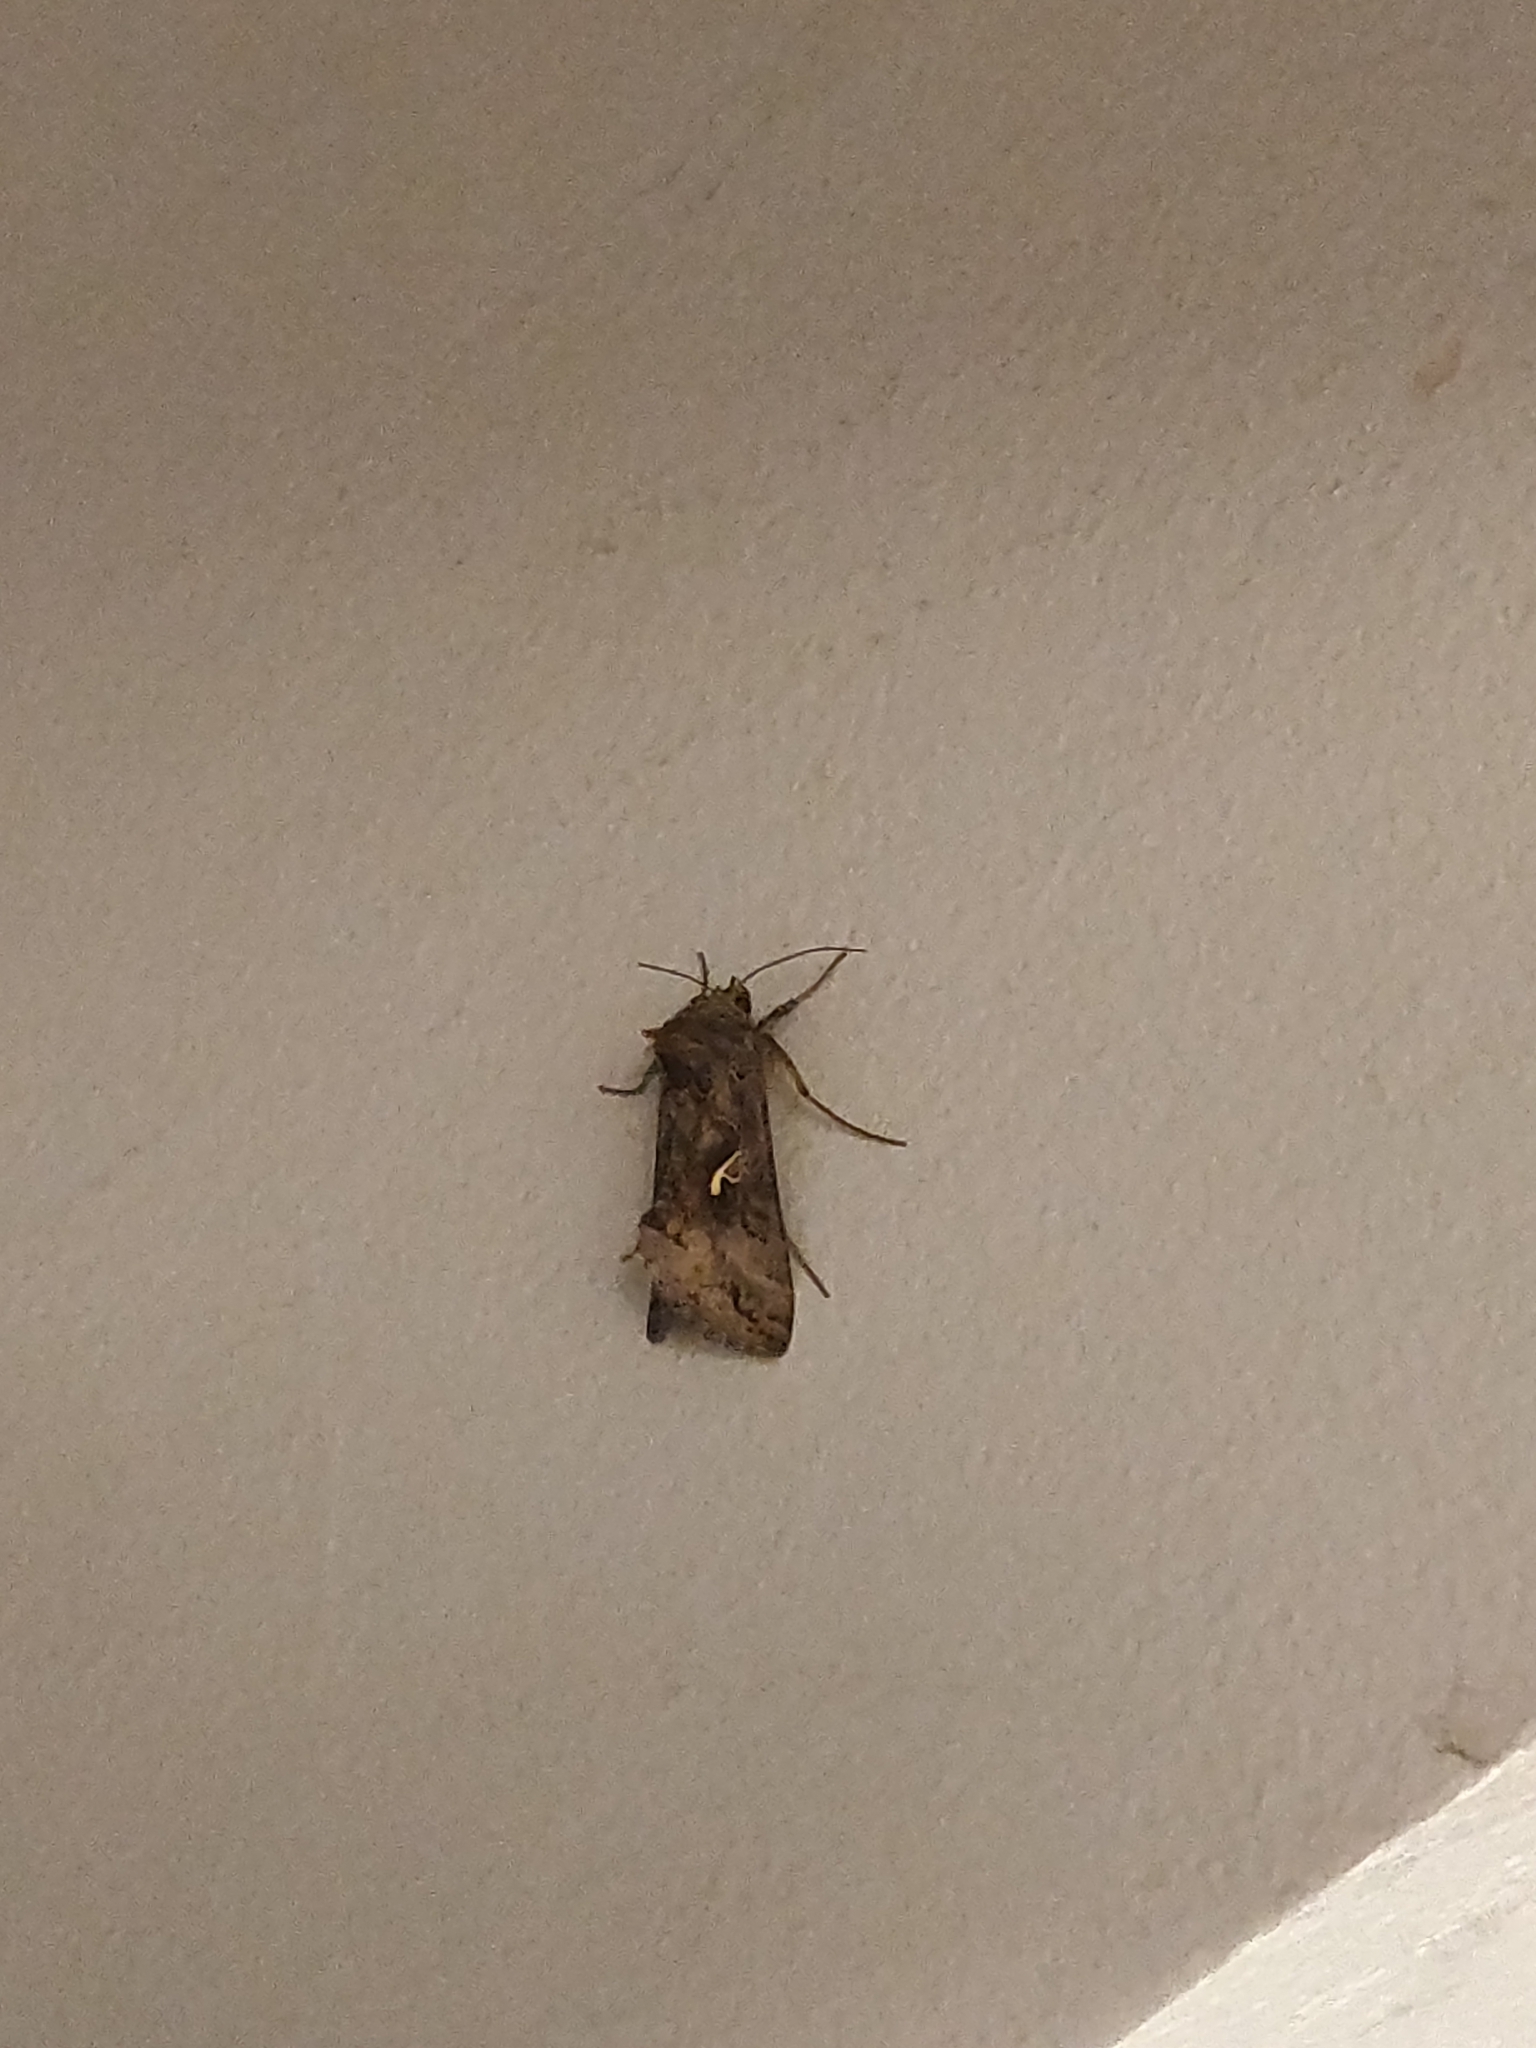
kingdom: Animalia
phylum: Arthropoda
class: Insecta
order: Lepidoptera
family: Noctuidae
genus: Autographa
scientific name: Autographa gamma
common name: Silver y
